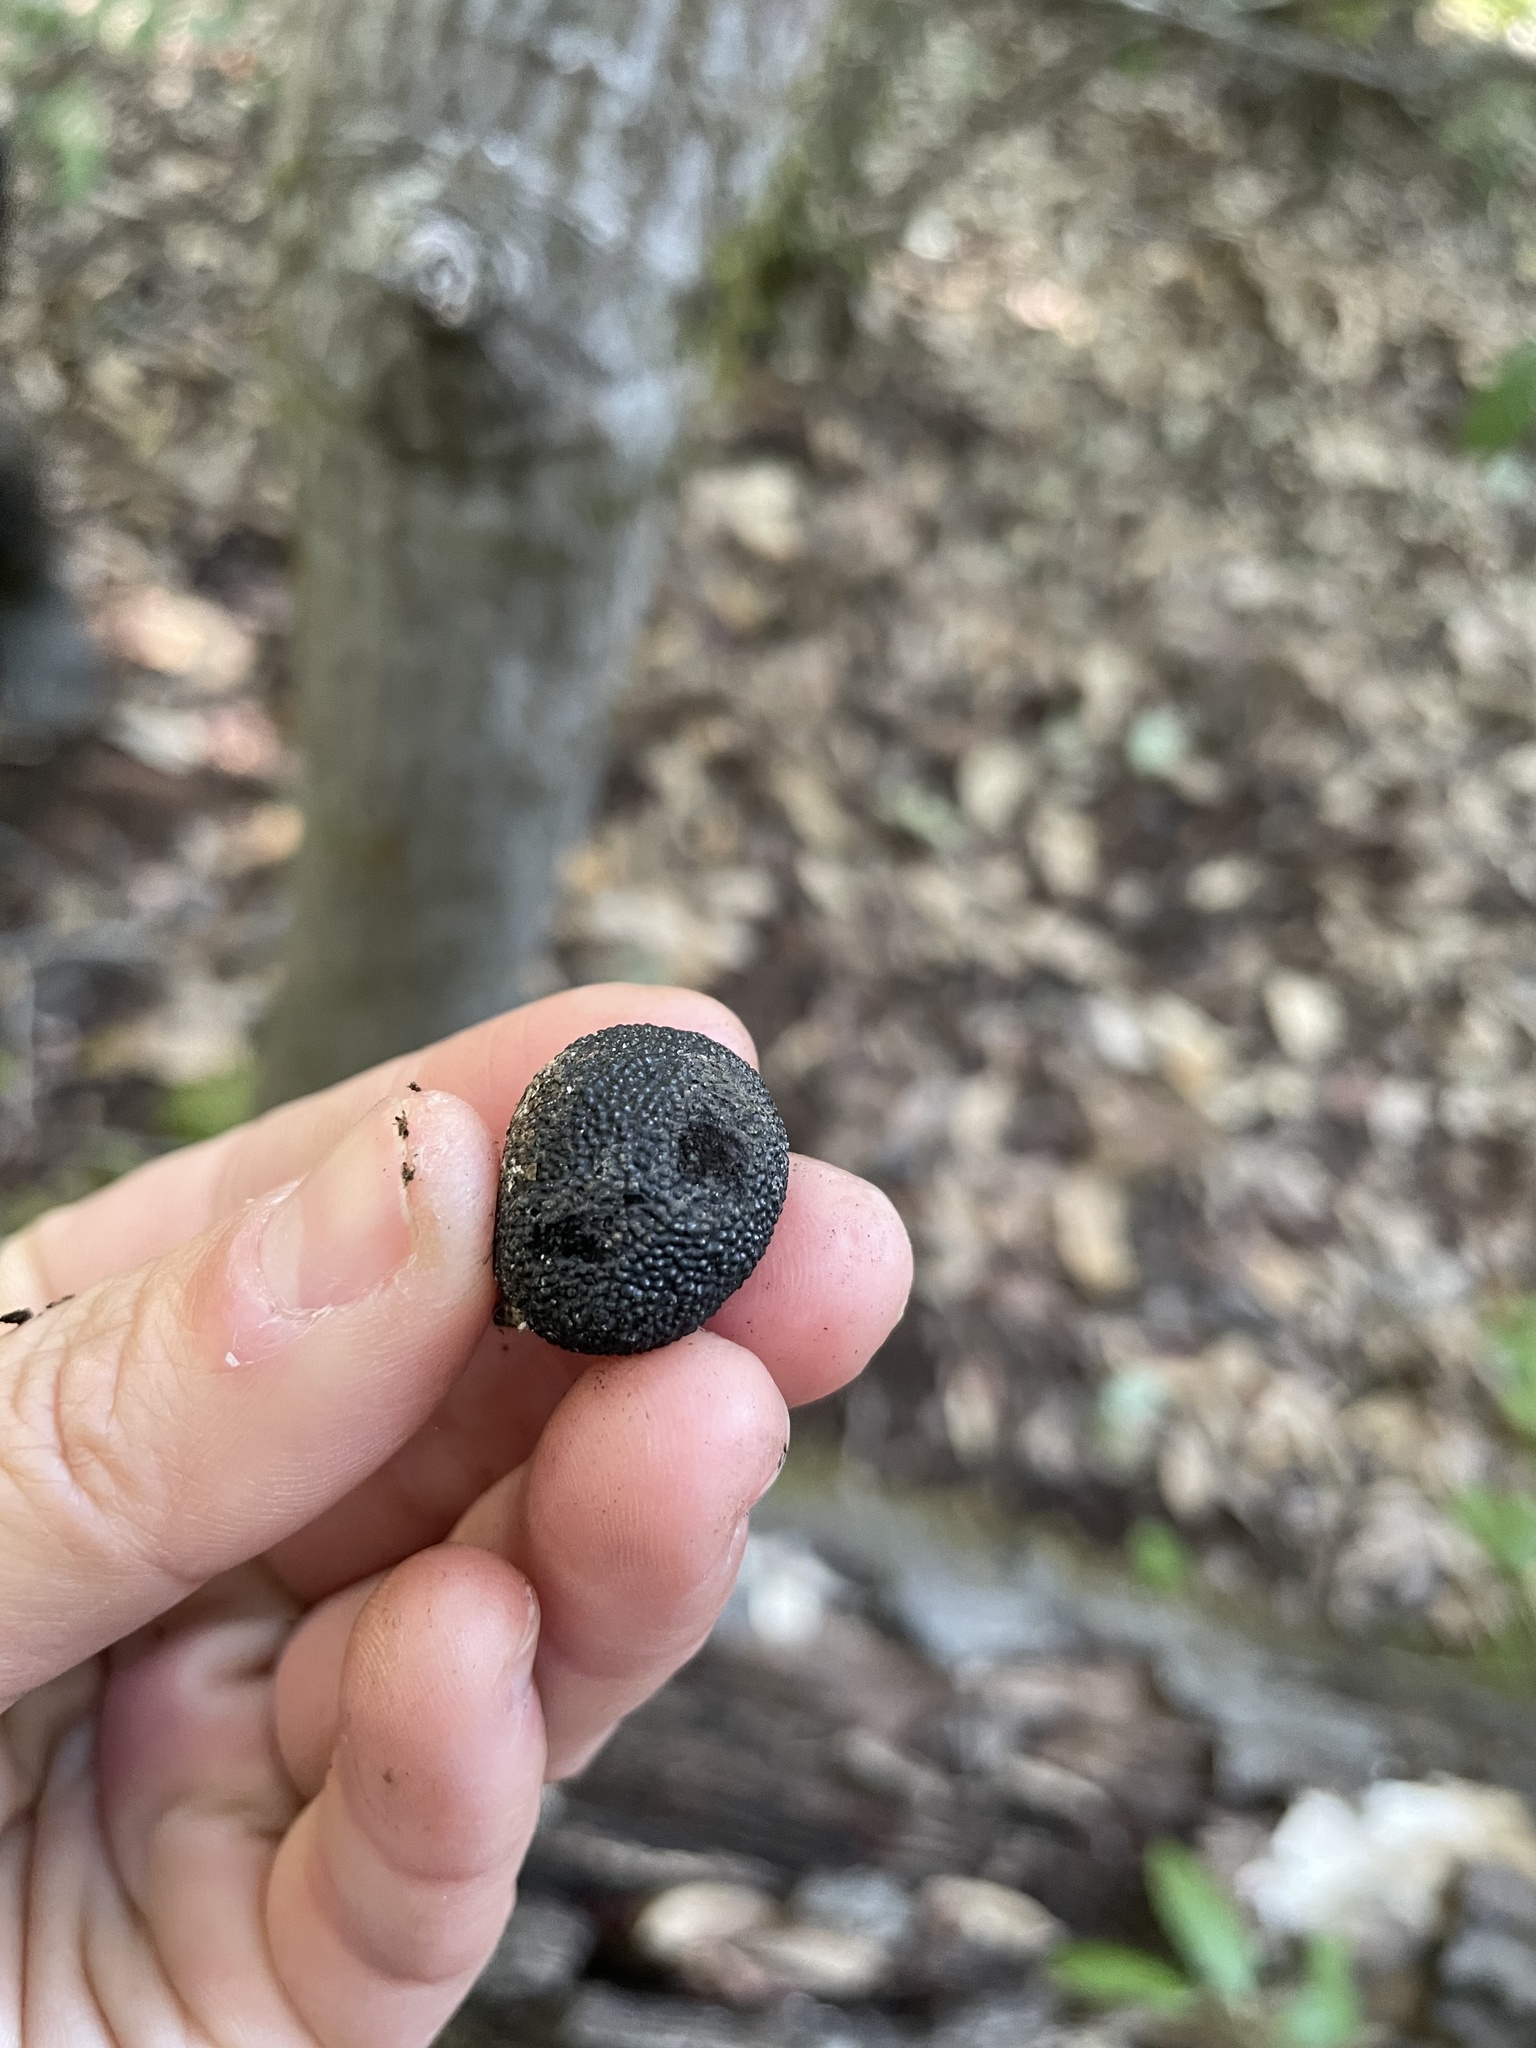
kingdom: Fungi
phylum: Ascomycota
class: Sordariomycetes
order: Xylariales
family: Hypoxylaceae
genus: Annulohypoxylon
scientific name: Annulohypoxylon thouarsianum
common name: Cramp balls
